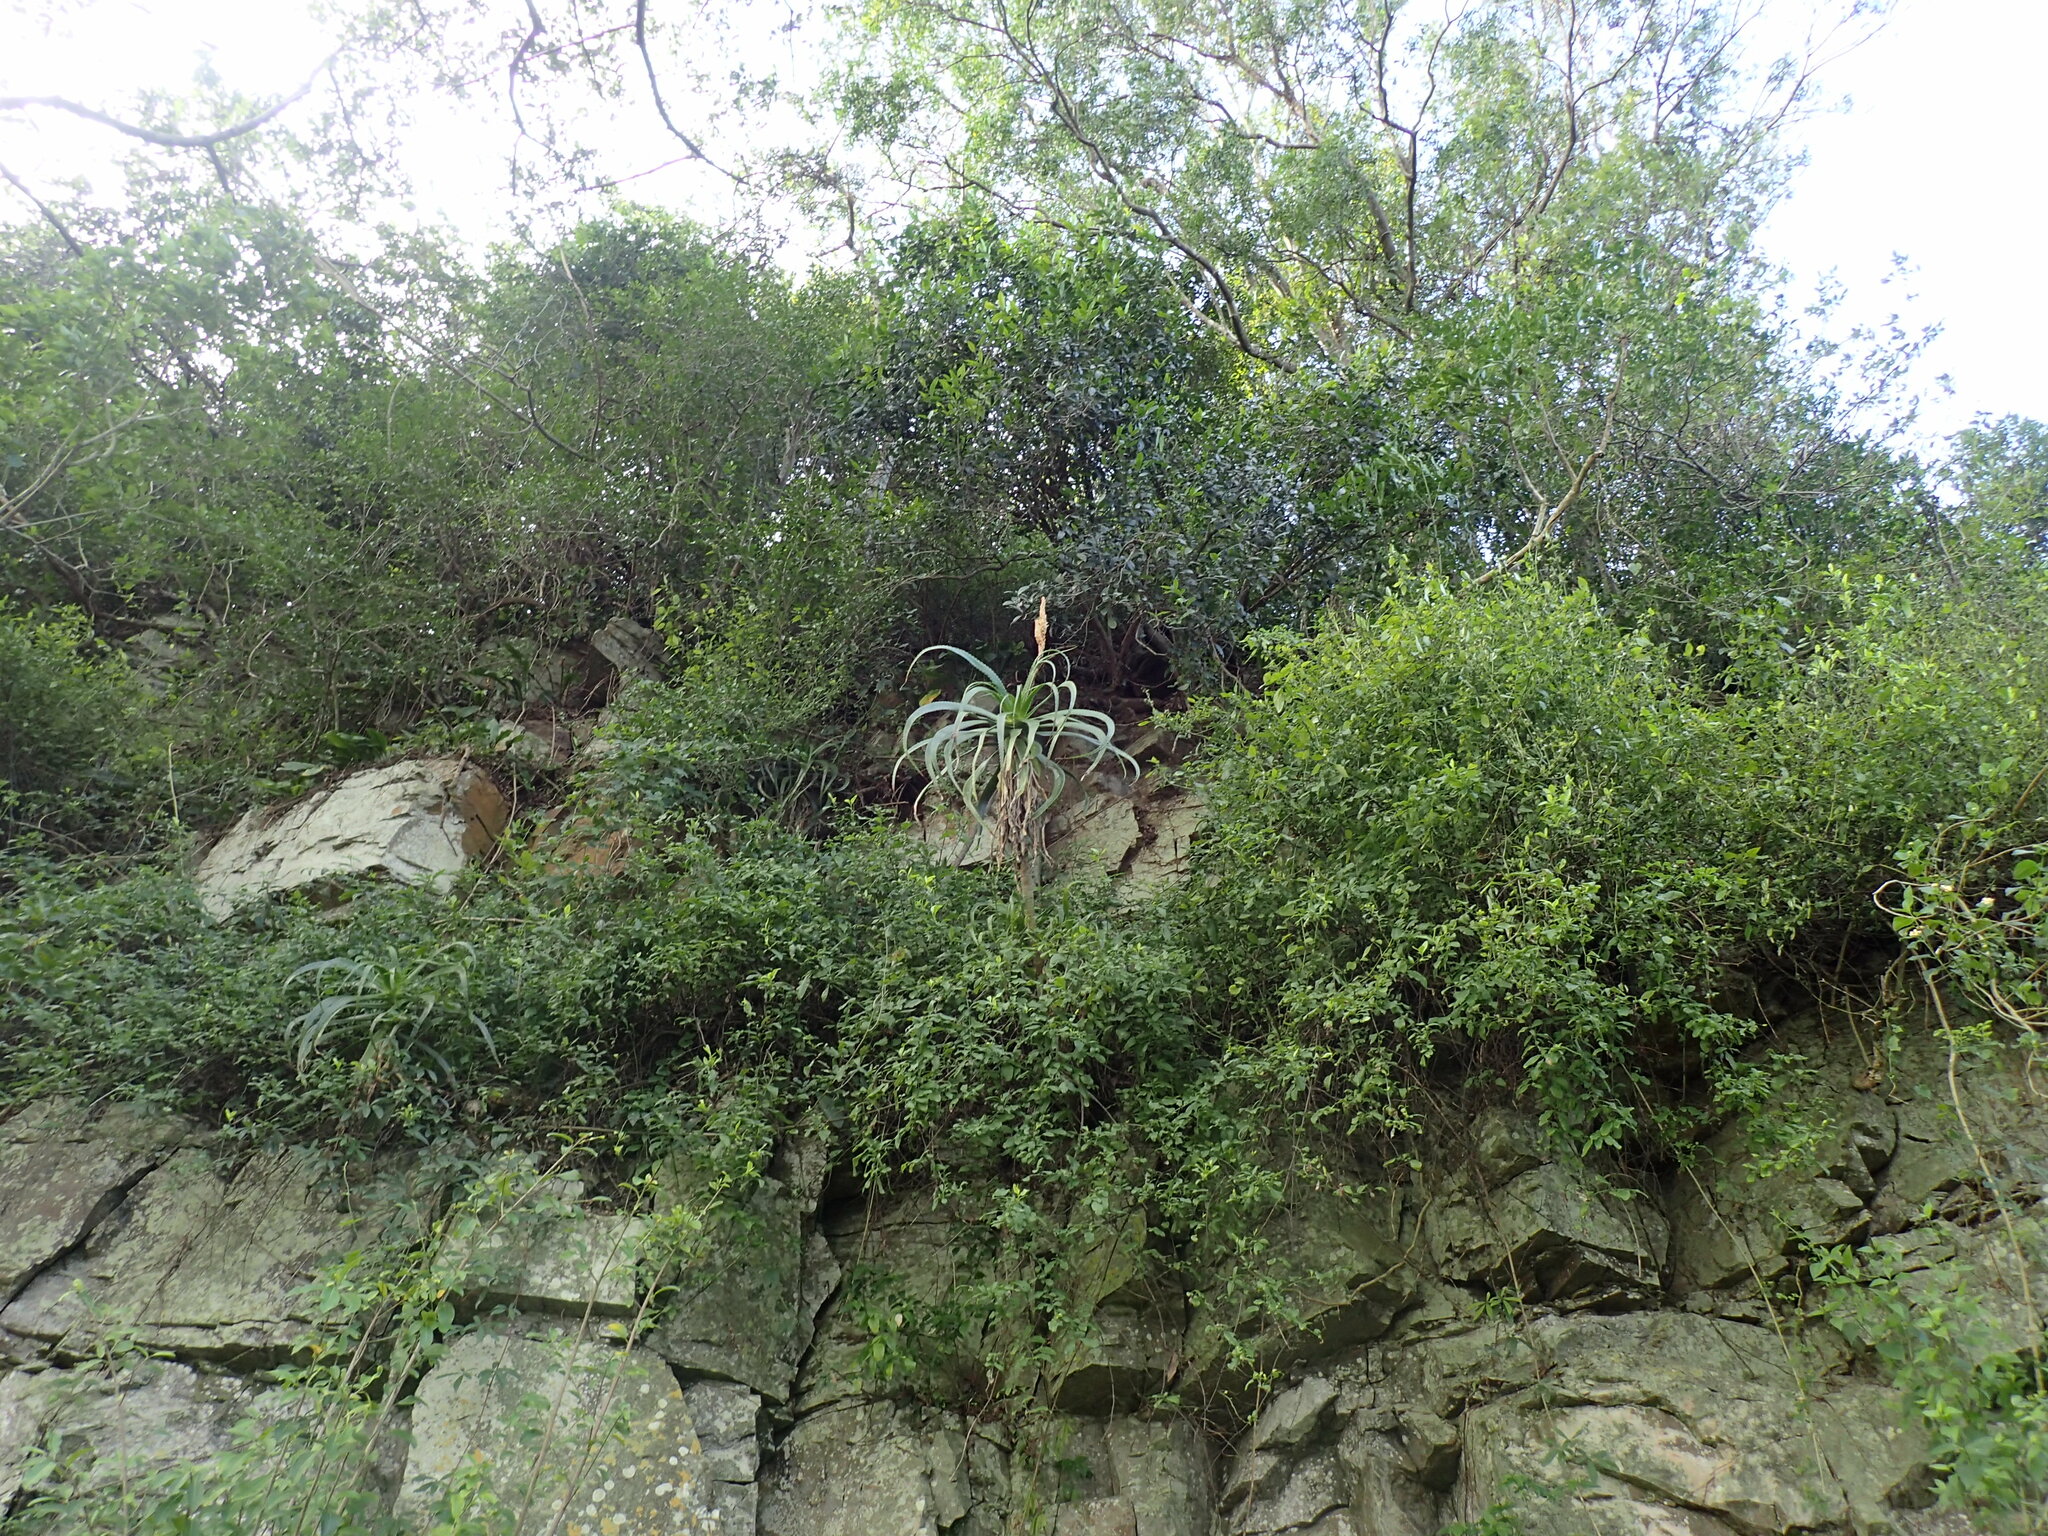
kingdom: Plantae
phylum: Tracheophyta
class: Liliopsida
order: Asparagales
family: Asphodelaceae
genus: Aloe
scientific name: Aloe pluridens
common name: French aloe
